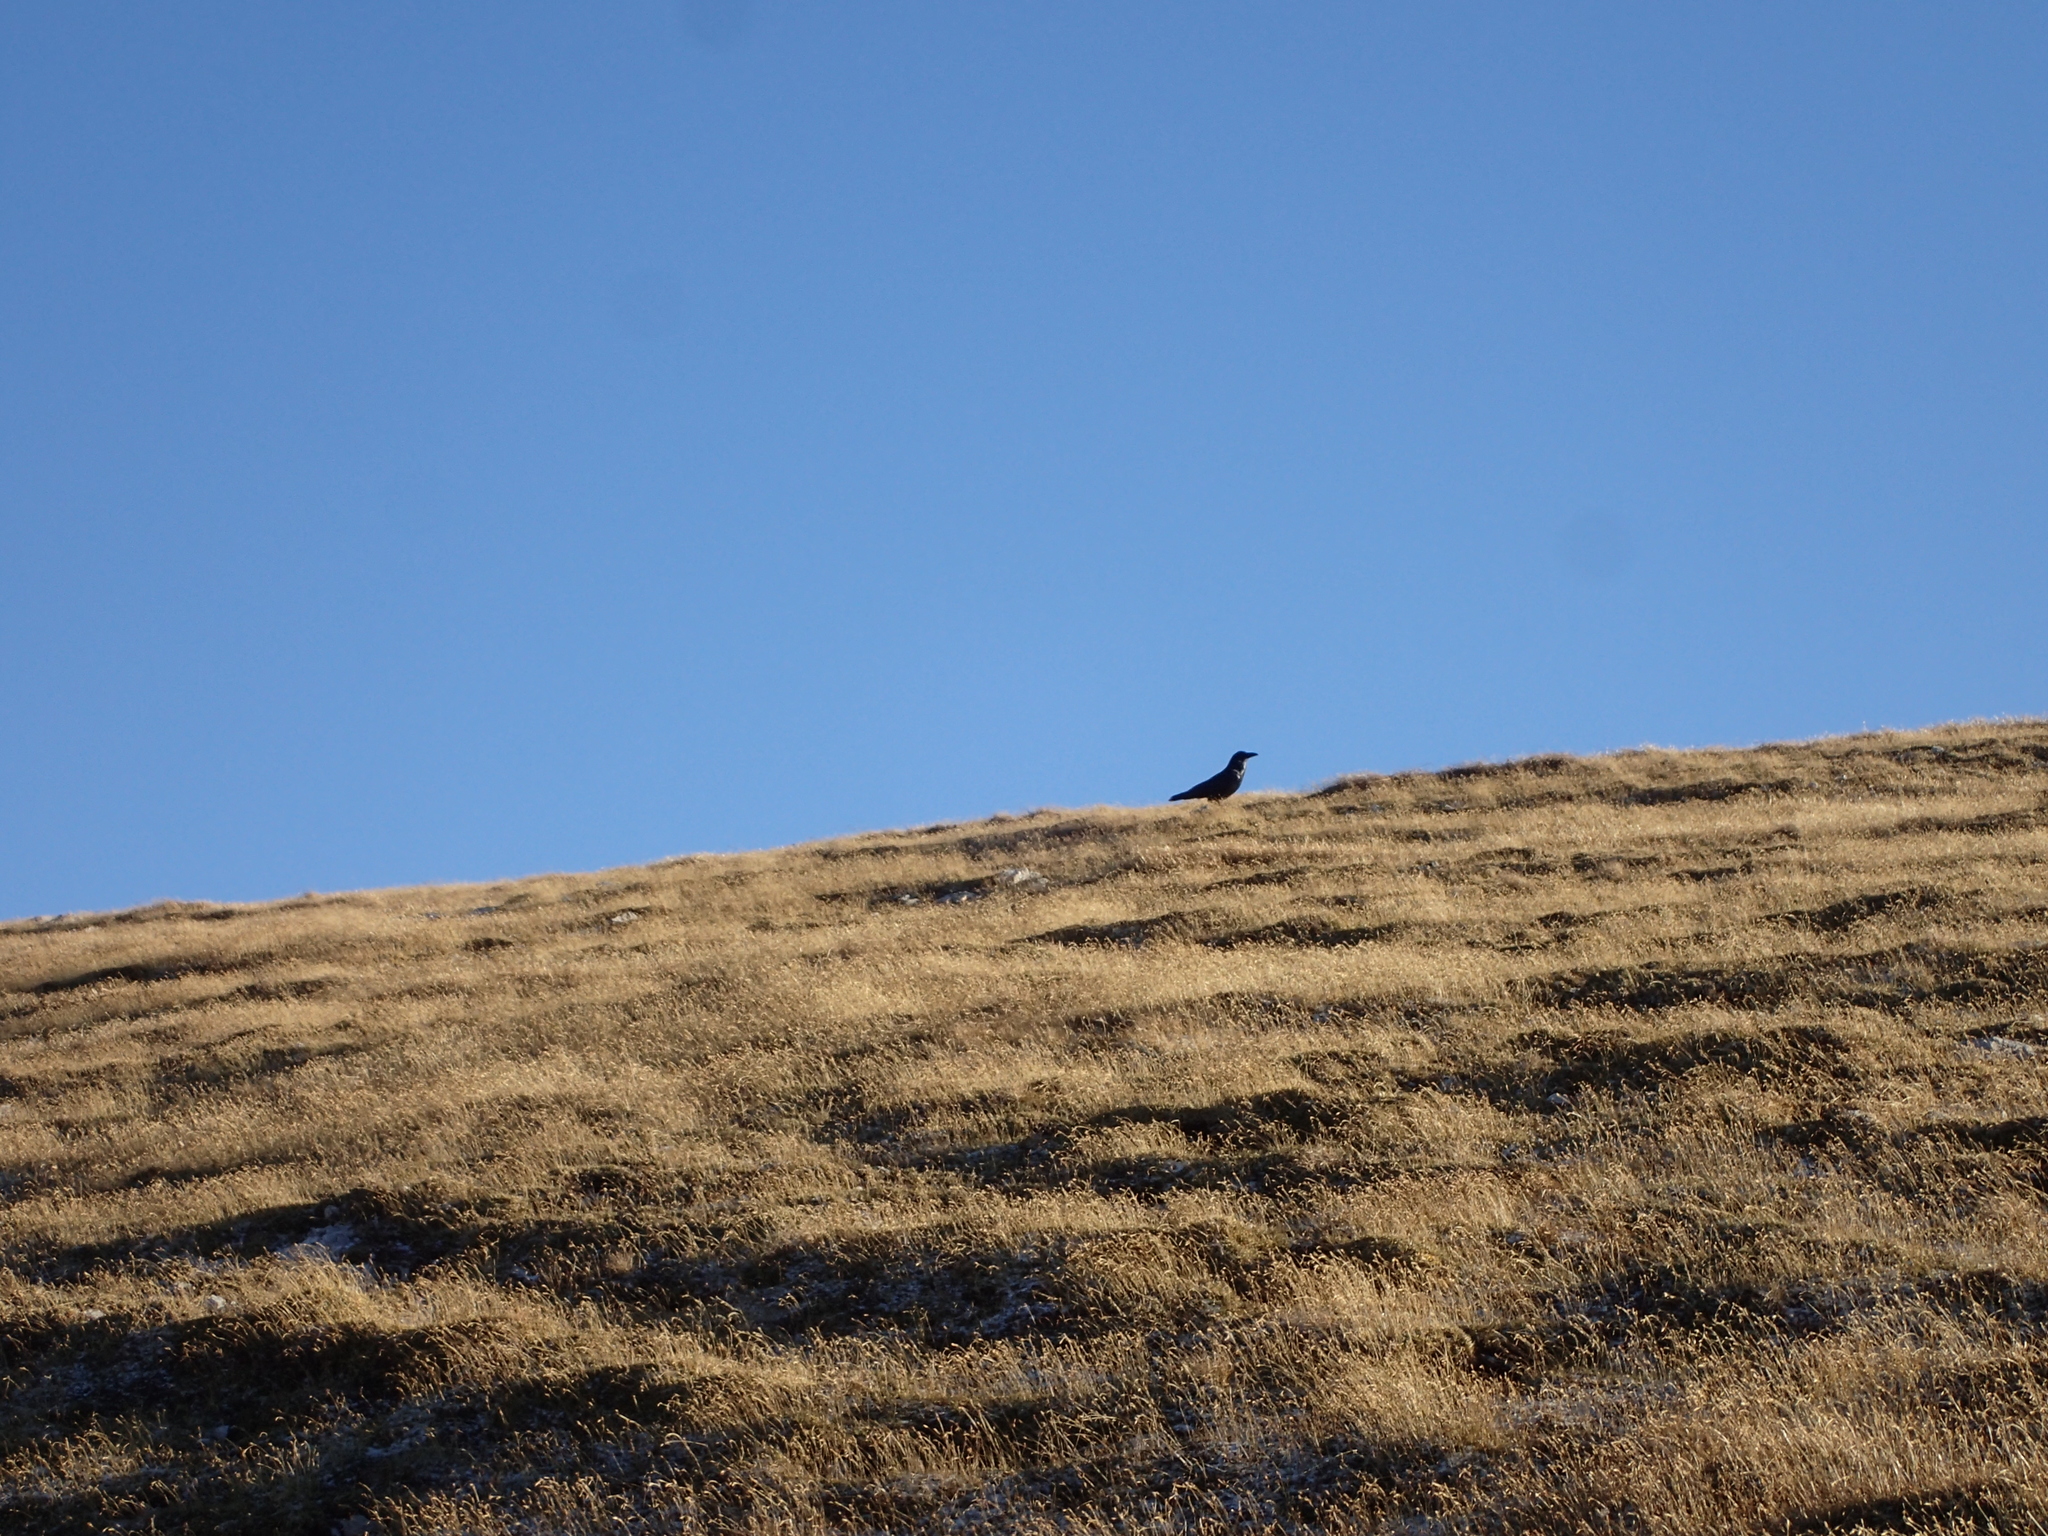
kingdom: Animalia
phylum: Chordata
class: Aves
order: Passeriformes
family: Corvidae
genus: Corvus
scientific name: Corvus corax
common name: Common raven
